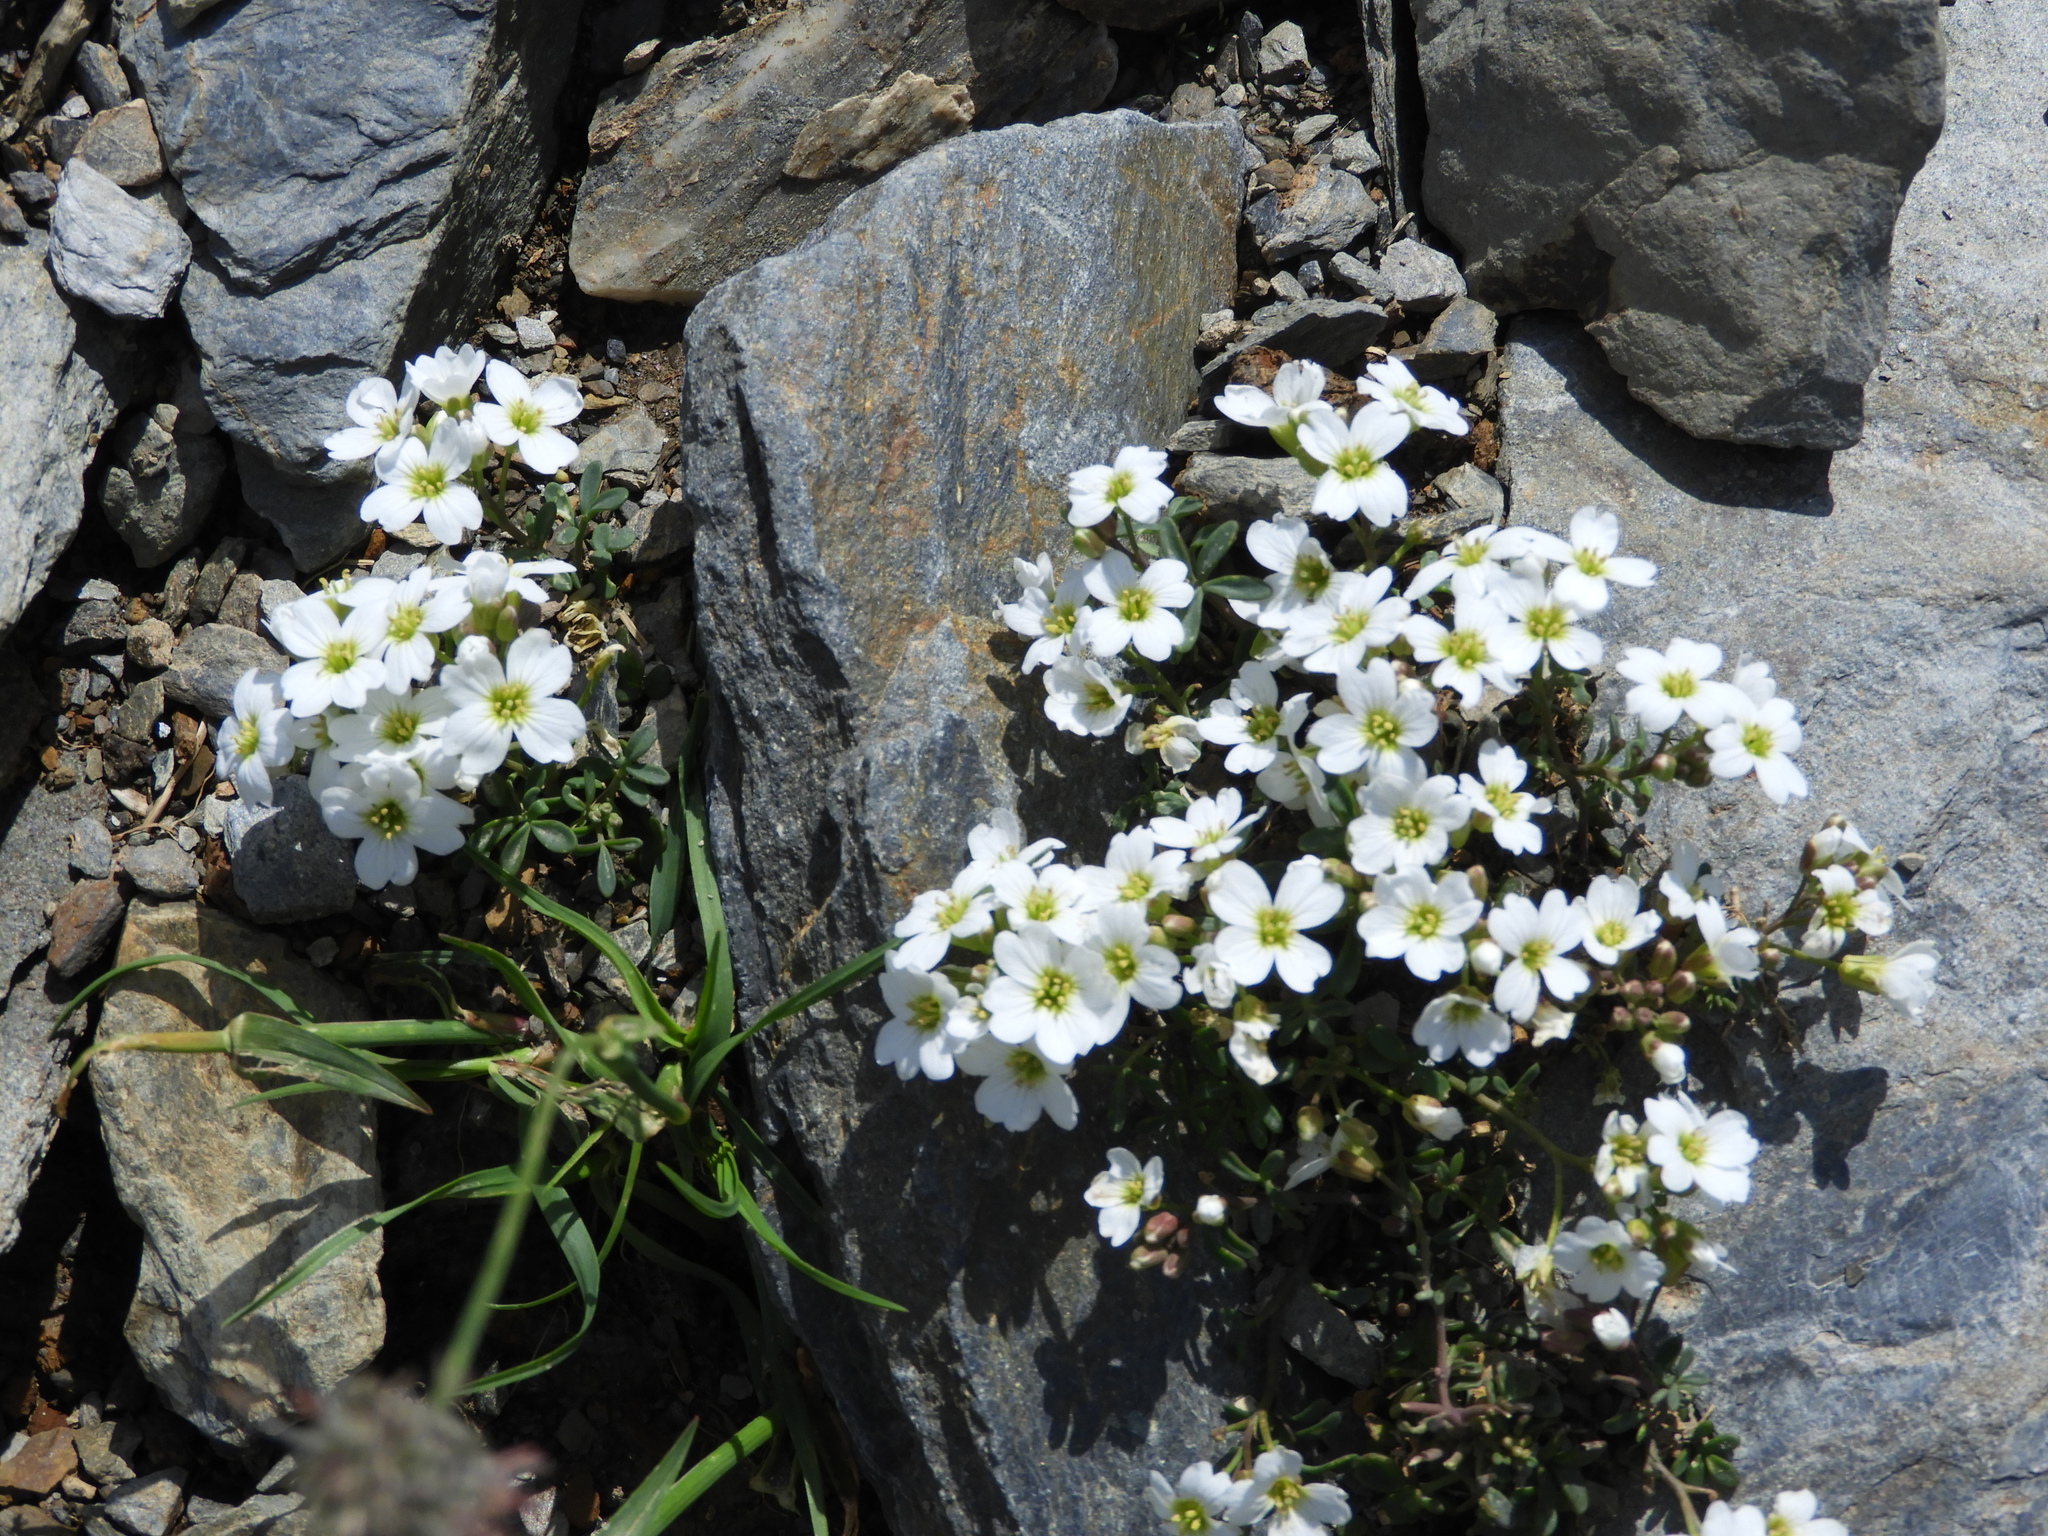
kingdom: Plantae
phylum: Tracheophyta
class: Magnoliopsida
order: Brassicales
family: Brassicaceae
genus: Hornungia
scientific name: Hornungia alpina
